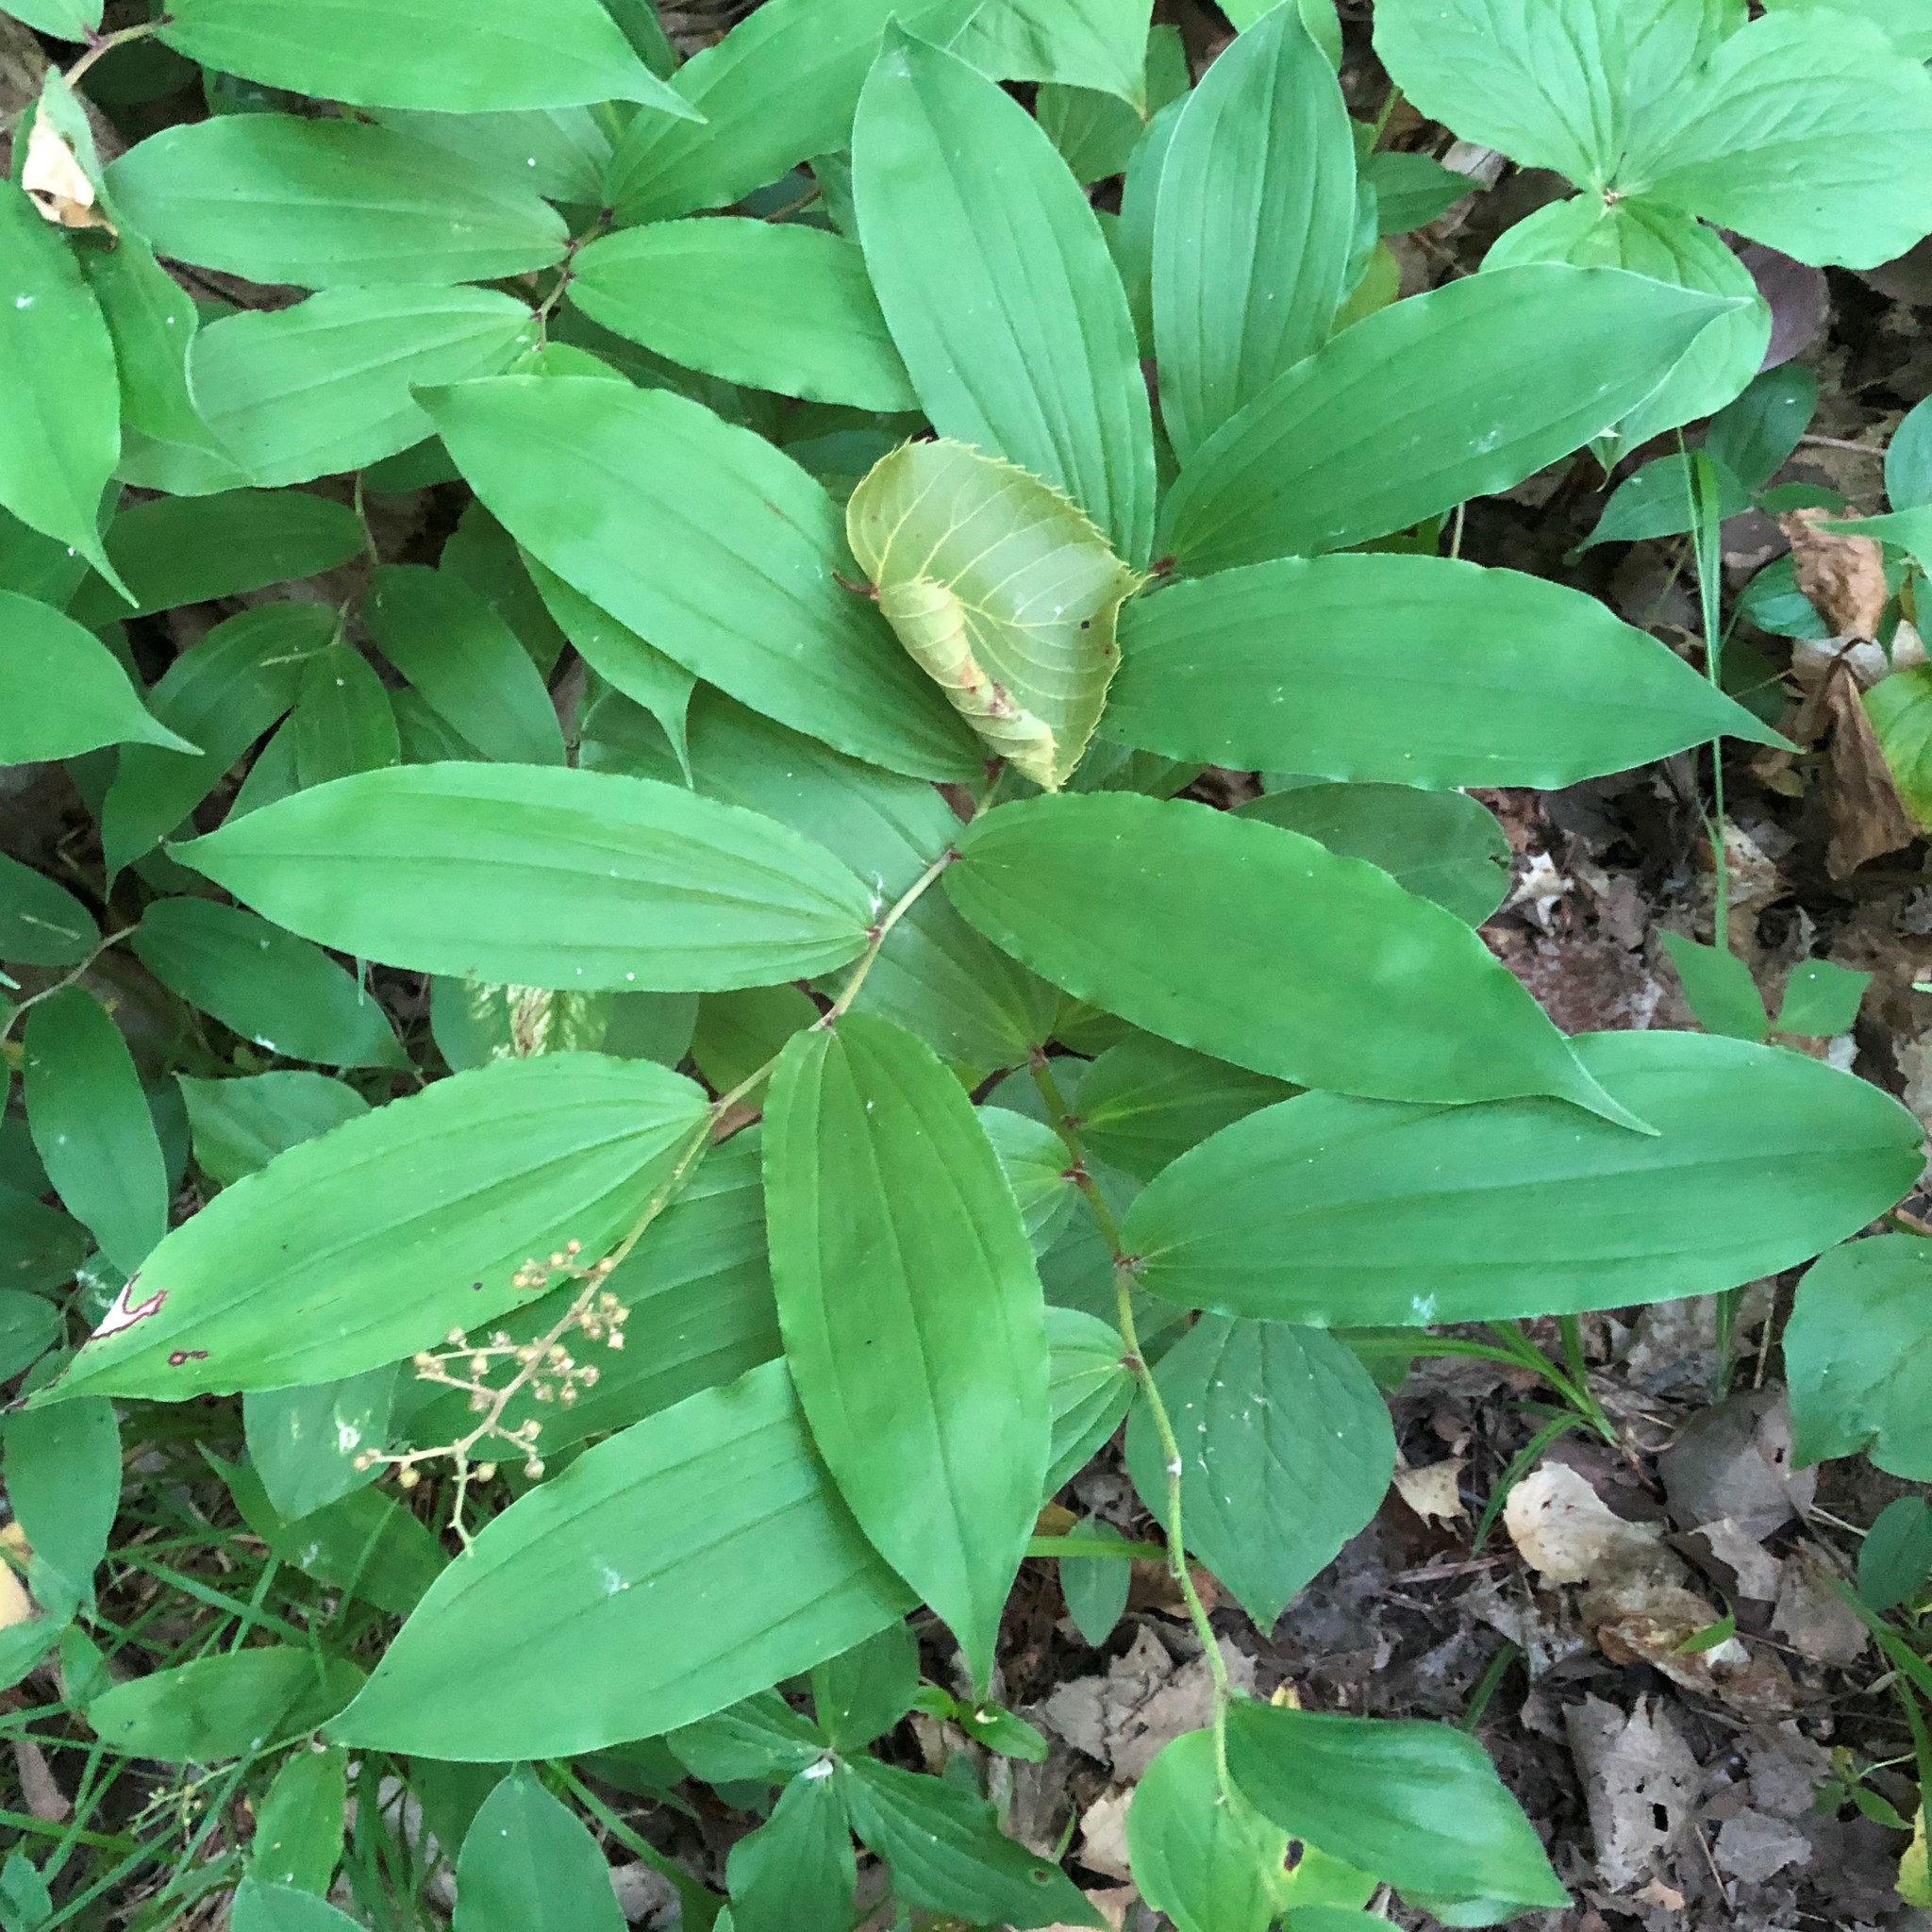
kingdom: Plantae
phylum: Tracheophyta
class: Liliopsida
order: Asparagales
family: Asparagaceae
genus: Maianthemum
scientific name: Maianthemum racemosum
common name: False spikenard
